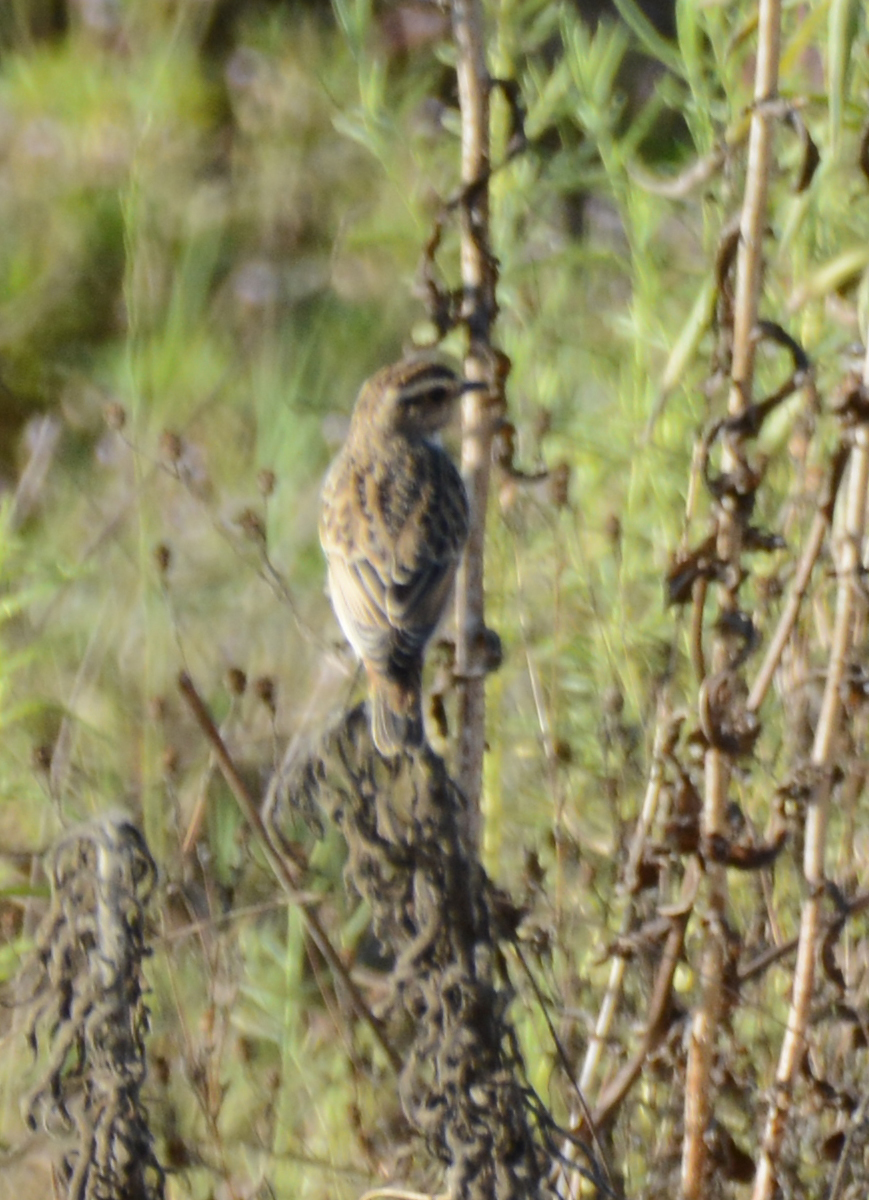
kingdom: Animalia
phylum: Chordata
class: Aves
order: Passeriformes
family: Muscicapidae
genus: Saxicola
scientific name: Saxicola rubetra
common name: Whinchat
